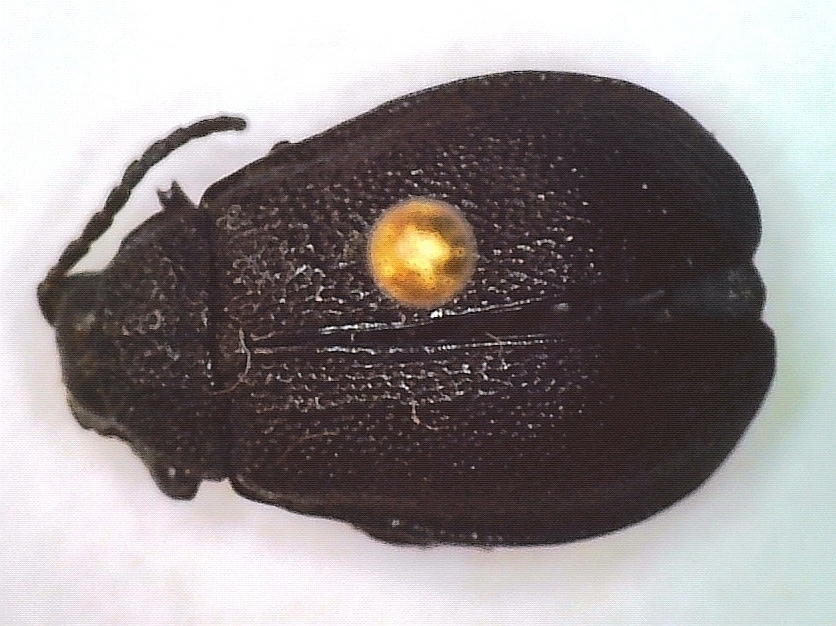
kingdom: Animalia
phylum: Arthropoda
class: Insecta
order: Coleoptera
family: Chrysomelidae
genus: Galeruca
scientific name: Galeruca tanaceti
